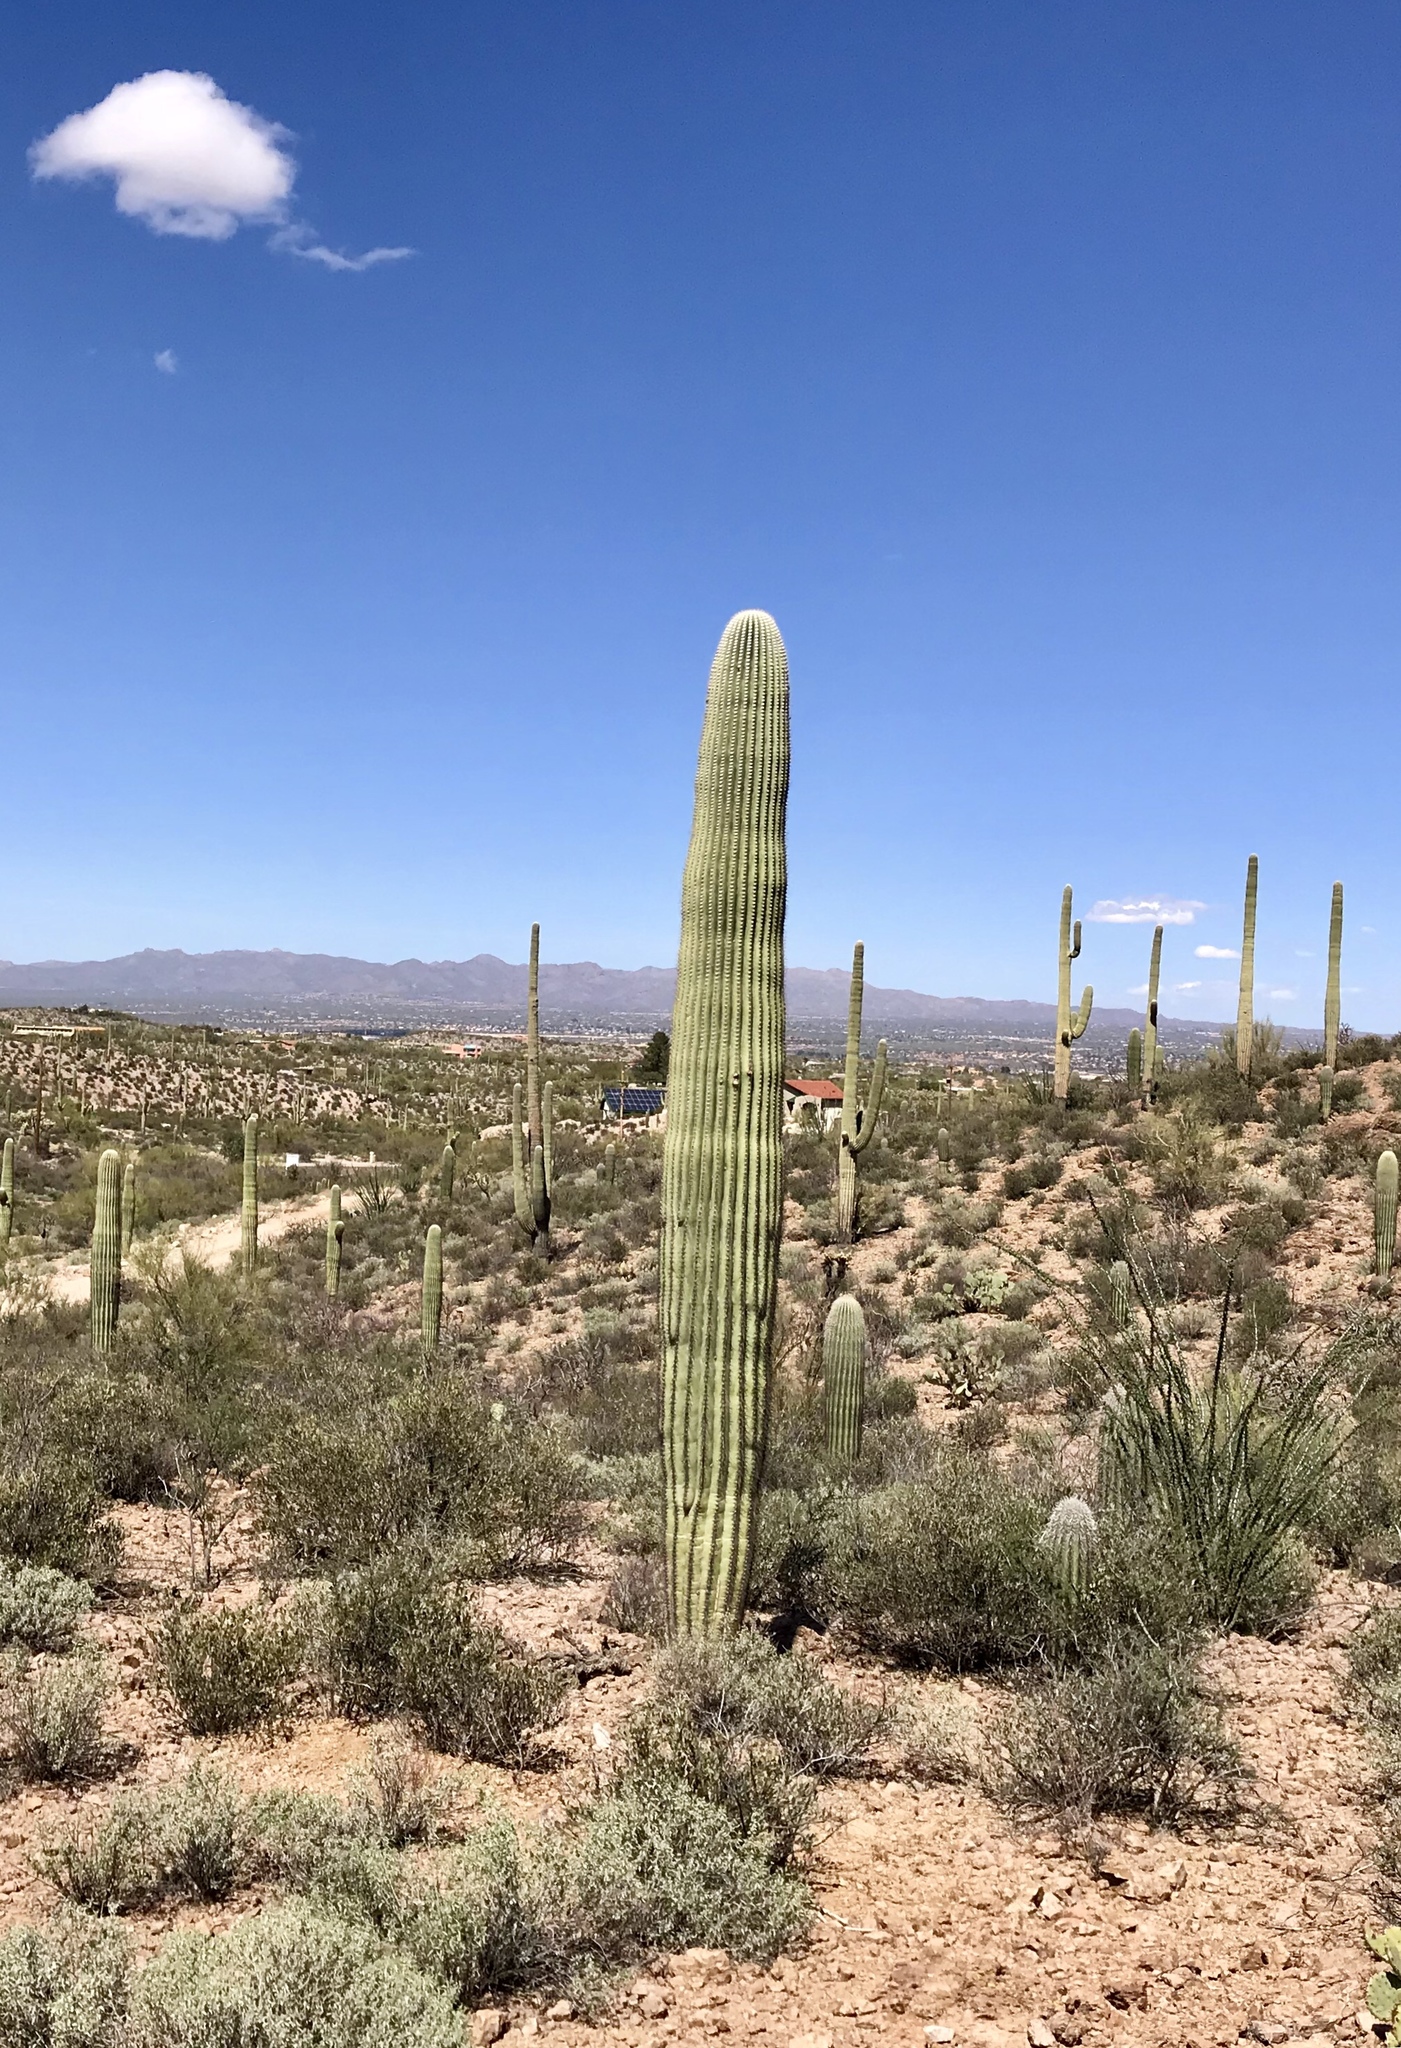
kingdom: Plantae
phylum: Tracheophyta
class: Magnoliopsida
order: Caryophyllales
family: Cactaceae
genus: Carnegiea
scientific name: Carnegiea gigantea
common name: Saguaro
